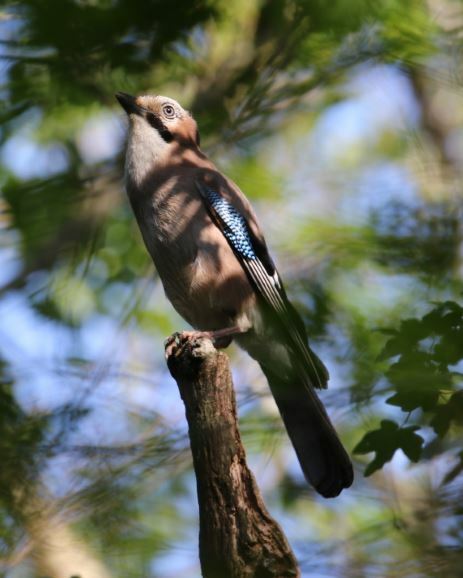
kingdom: Animalia
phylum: Chordata
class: Aves
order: Passeriformes
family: Corvidae
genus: Garrulus
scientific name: Garrulus glandarius
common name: Eurasian jay
